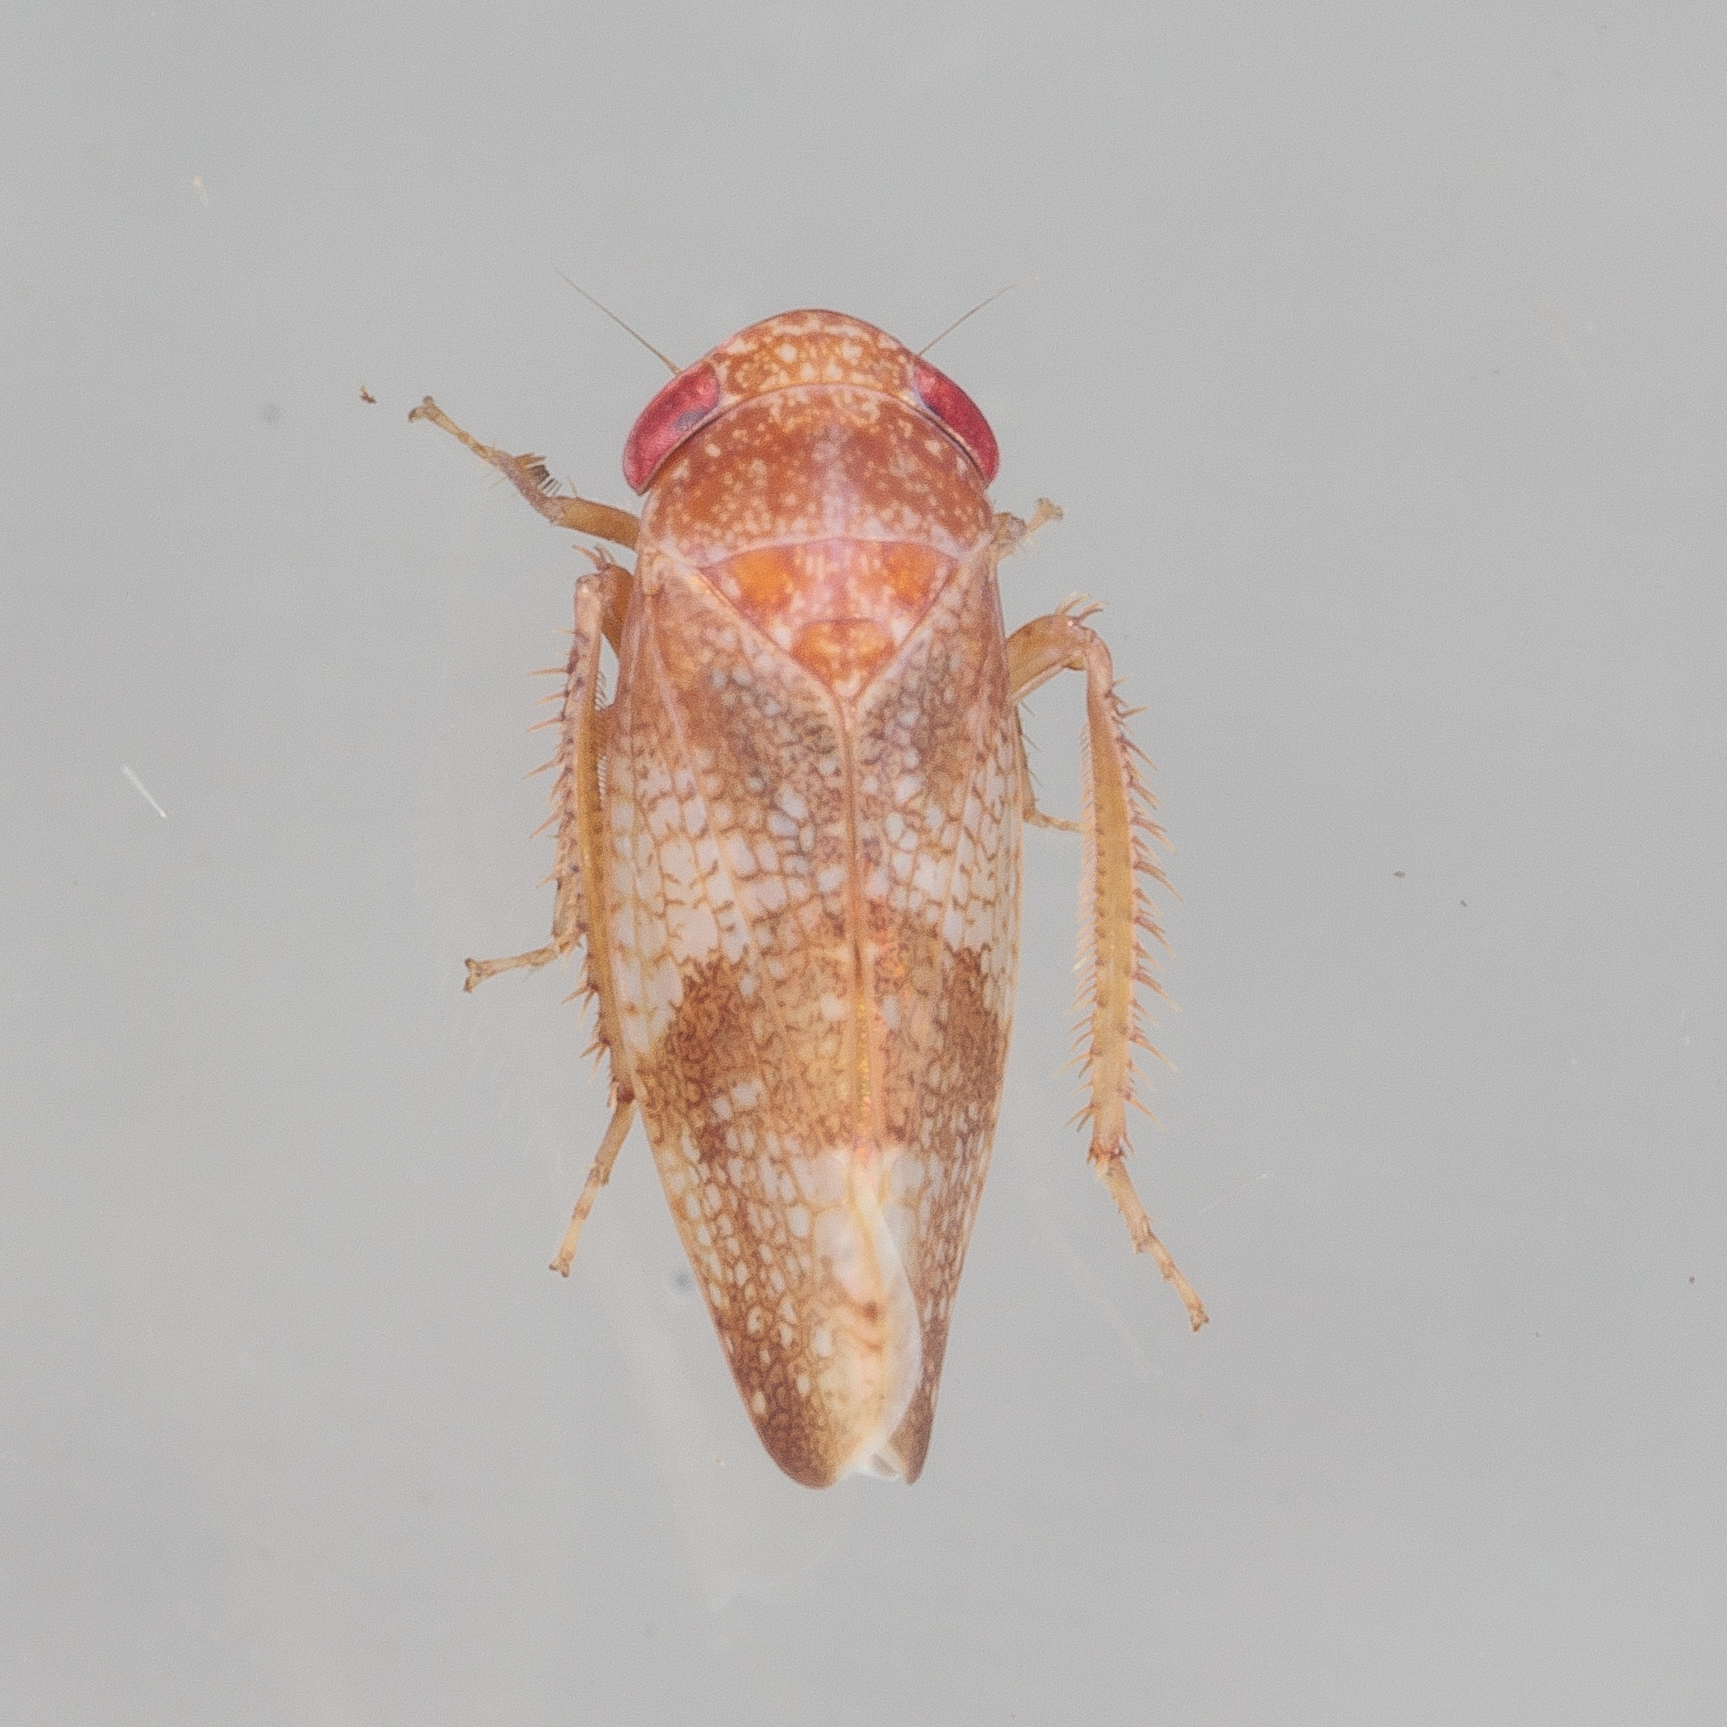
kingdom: Animalia
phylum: Arthropoda
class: Insecta
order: Hemiptera
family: Cicadellidae
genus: Norvellina
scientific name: Norvellina helenae
